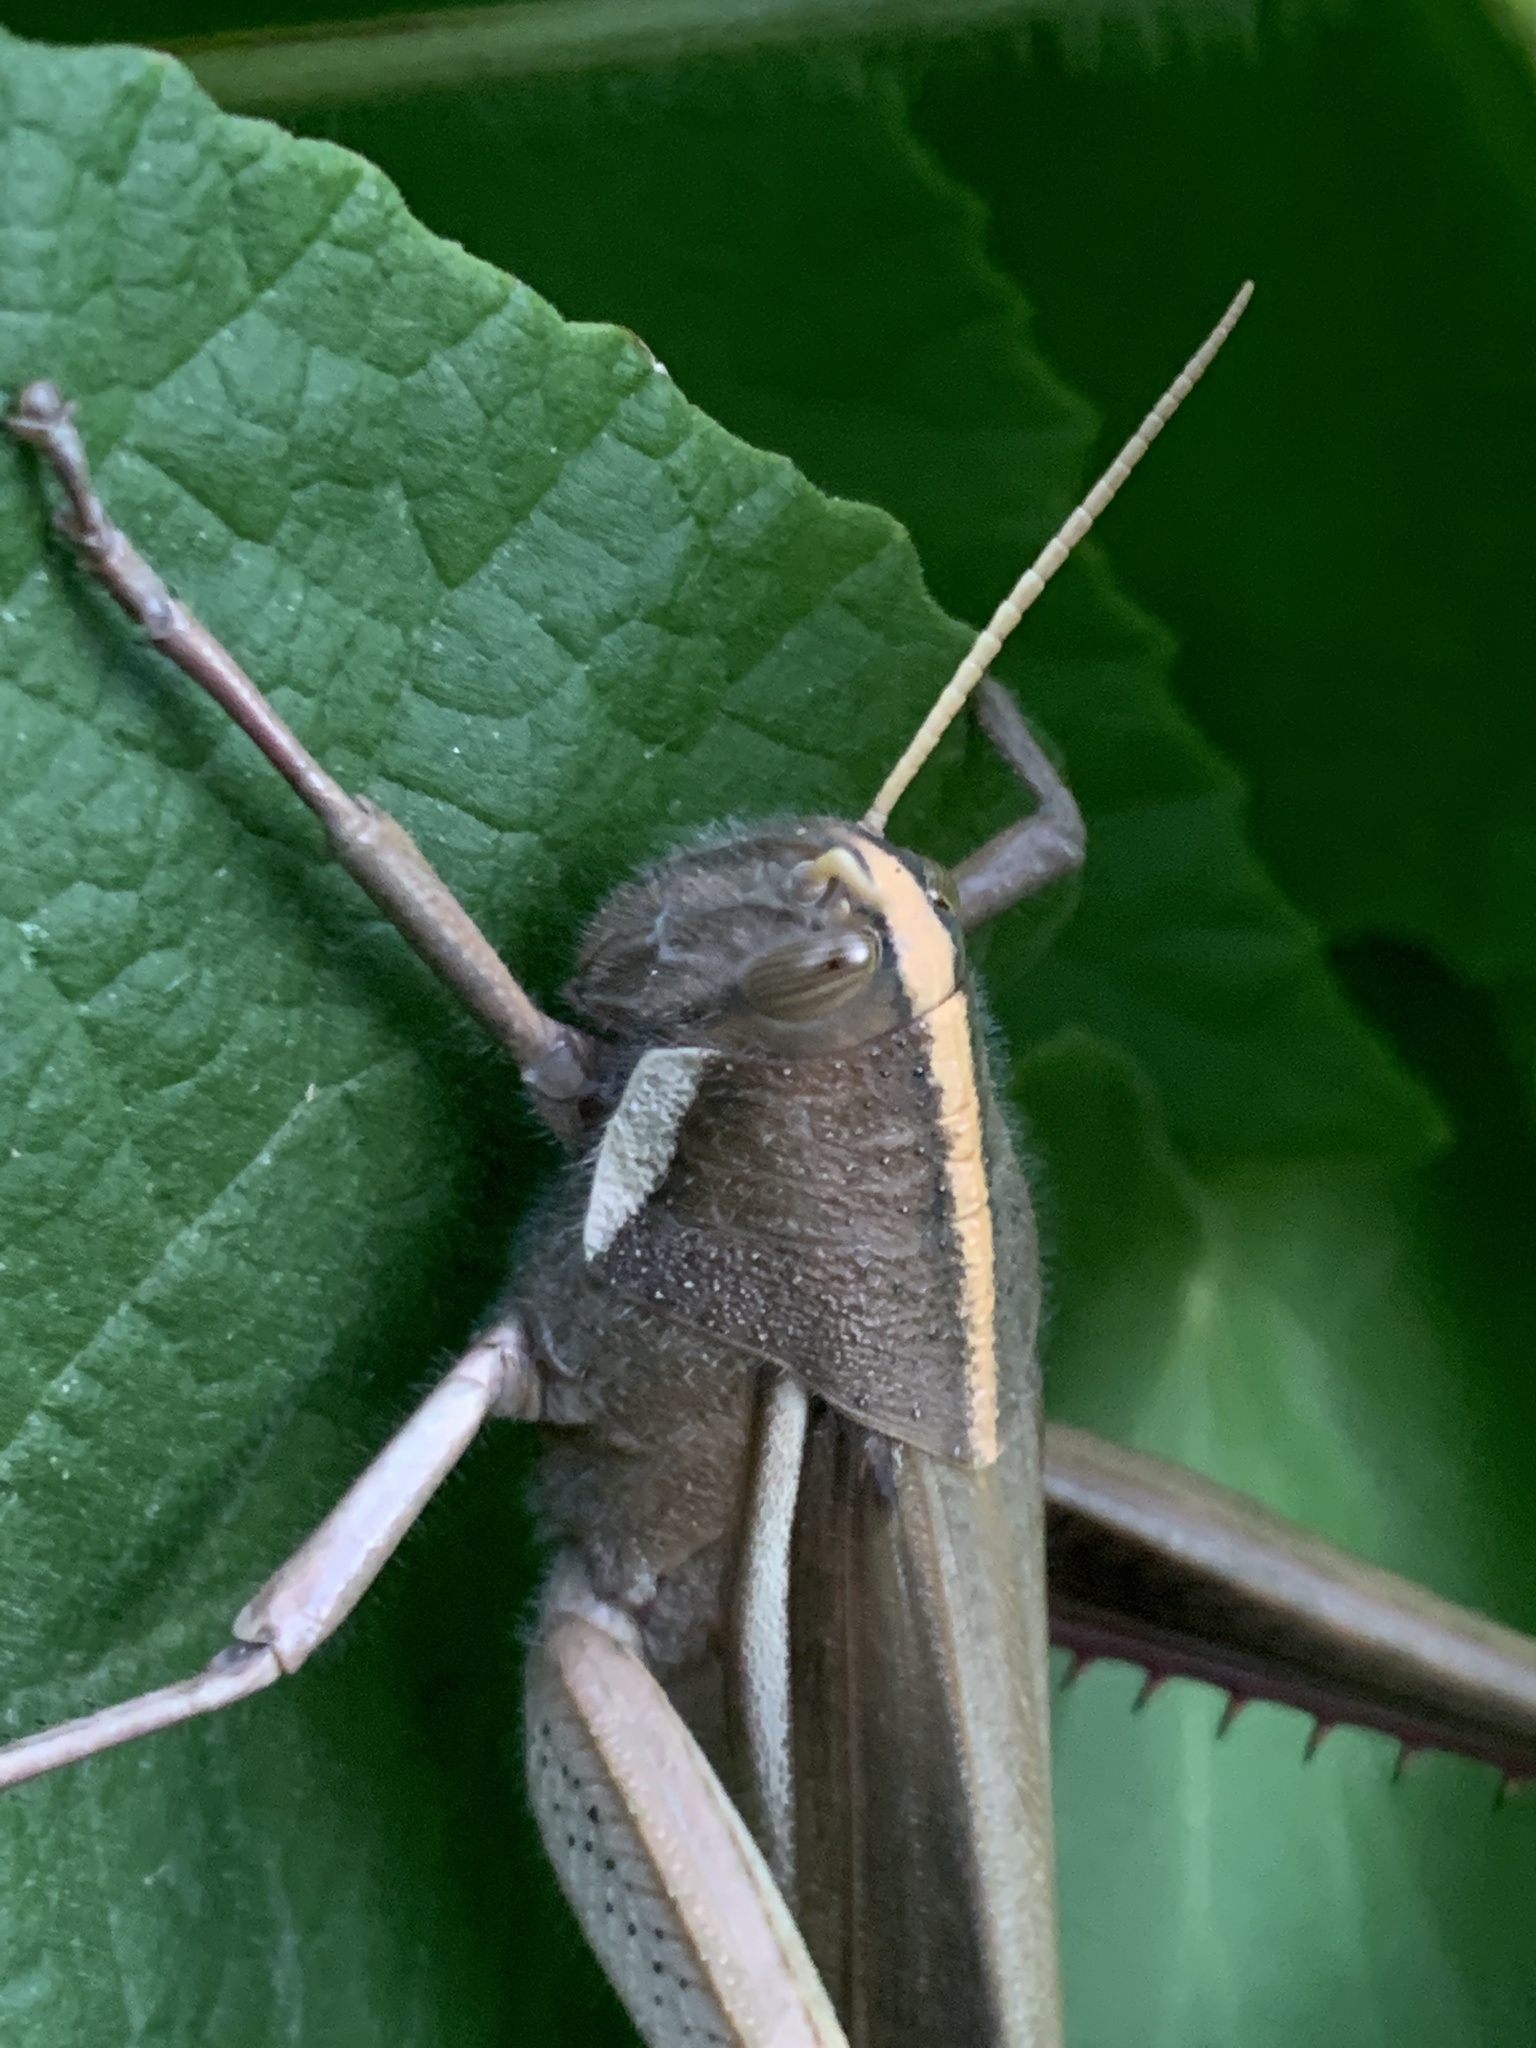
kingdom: Animalia
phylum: Arthropoda
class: Insecta
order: Orthoptera
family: Acrididae
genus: Schistocerca
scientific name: Schistocerca flavofasciata
